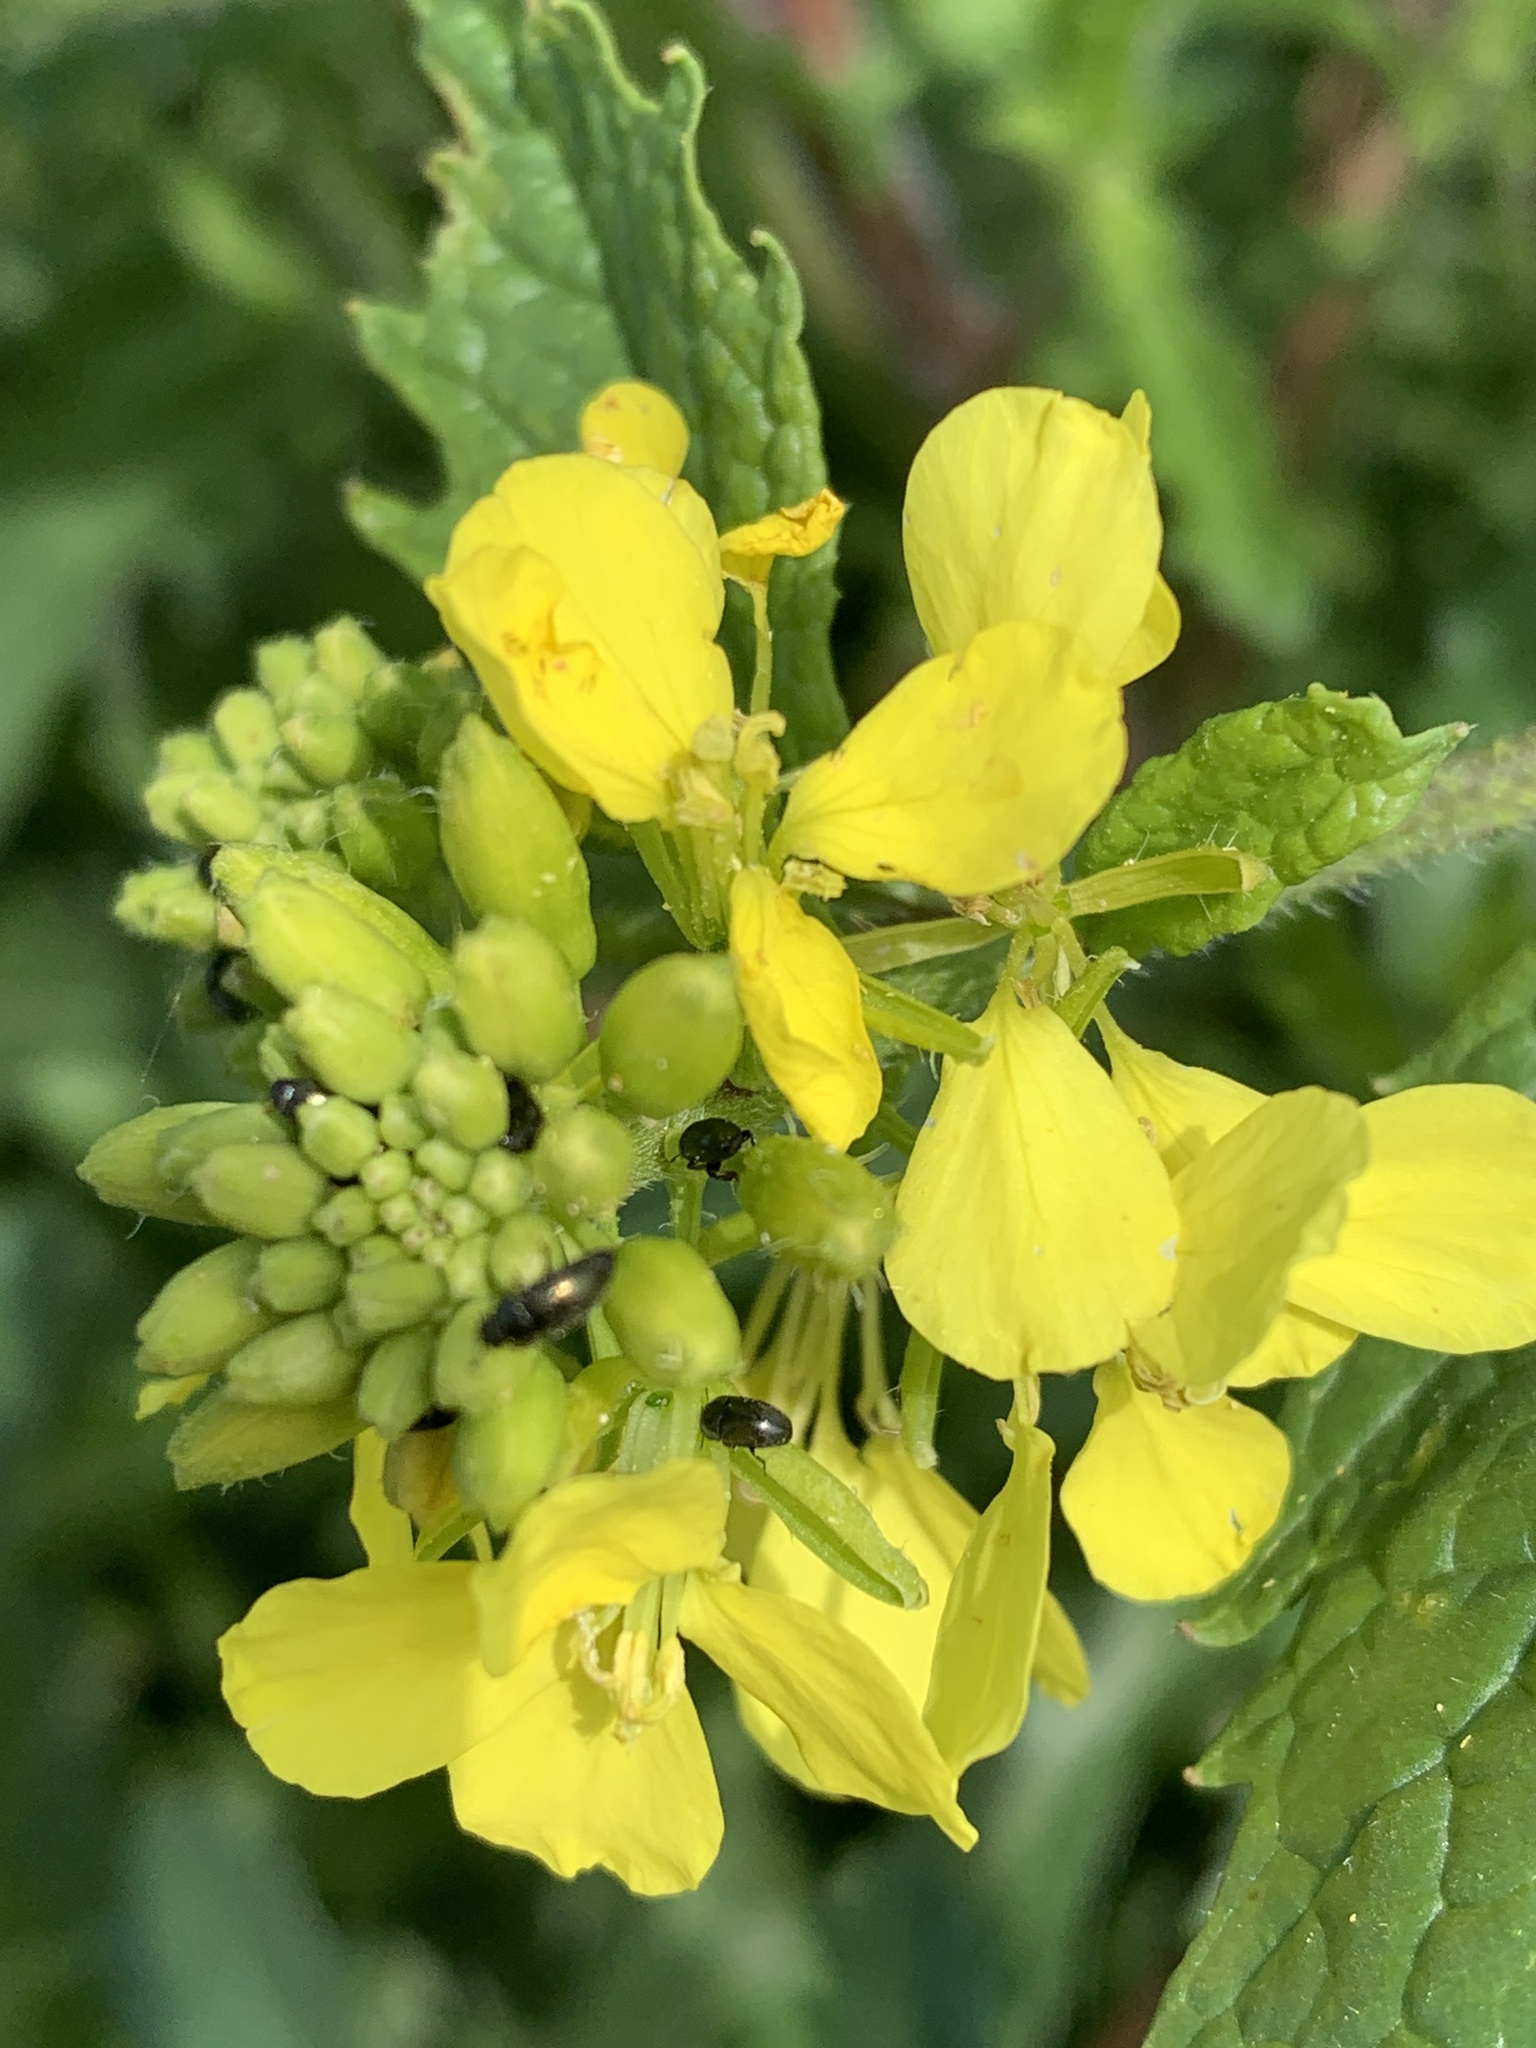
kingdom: Plantae
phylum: Tracheophyta
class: Magnoliopsida
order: Brassicales
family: Brassicaceae
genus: Sinapis
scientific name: Sinapis arvensis
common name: Charlock
